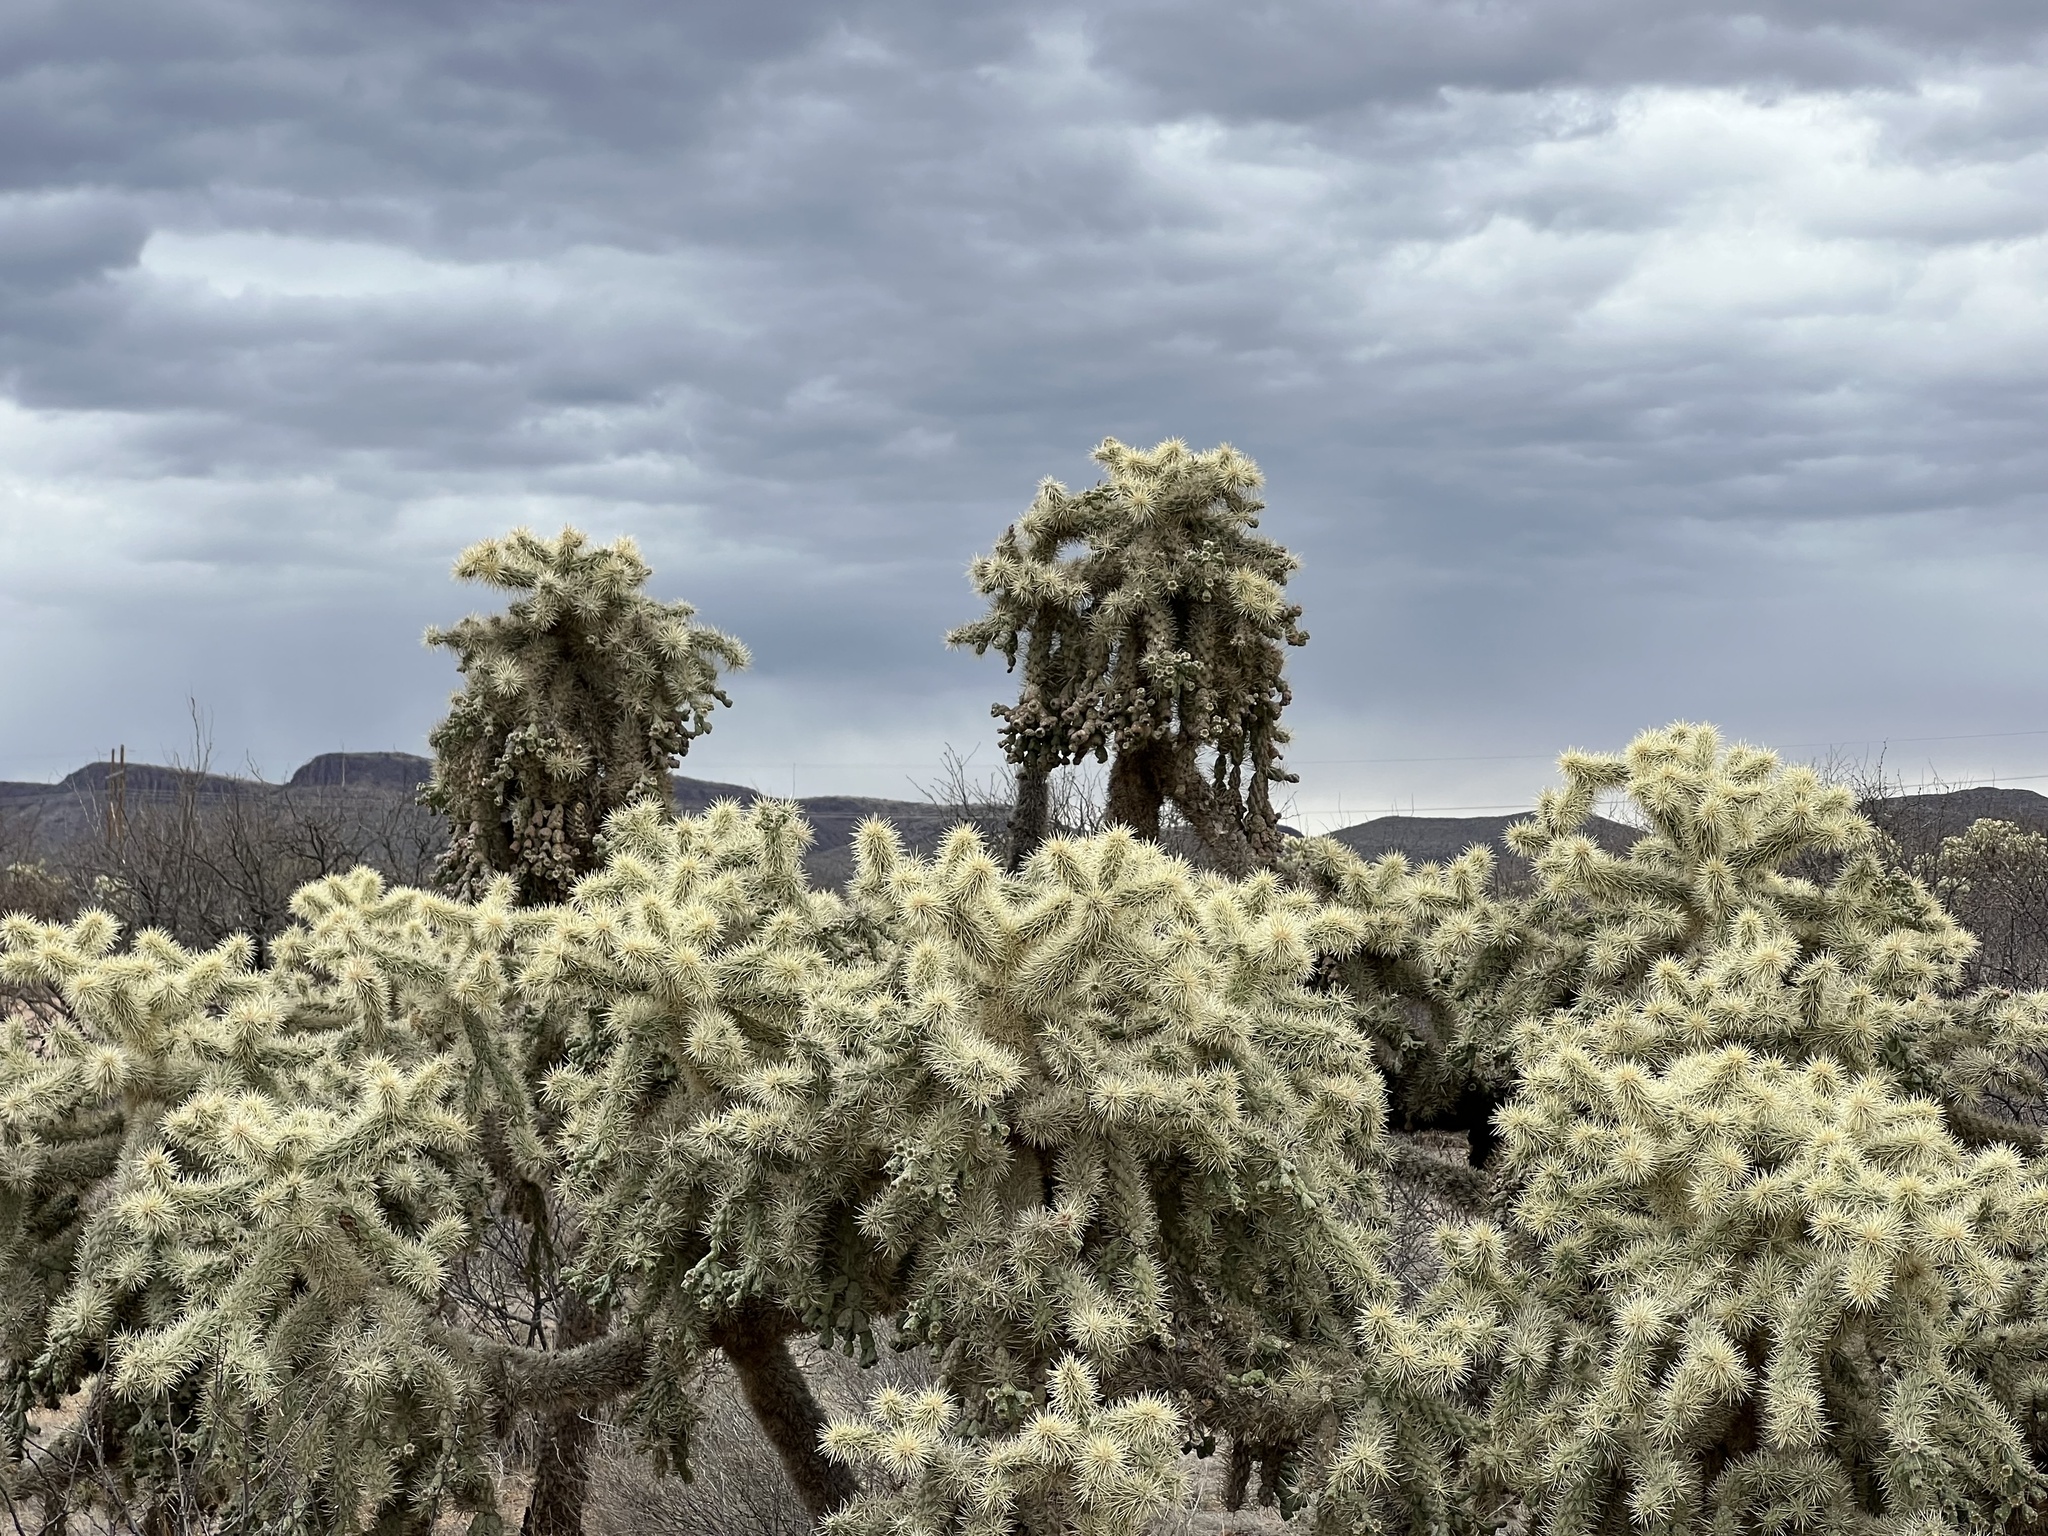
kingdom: Plantae
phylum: Tracheophyta
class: Magnoliopsida
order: Caryophyllales
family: Cactaceae
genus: Cylindropuntia
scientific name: Cylindropuntia fulgida
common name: Jumping cholla
